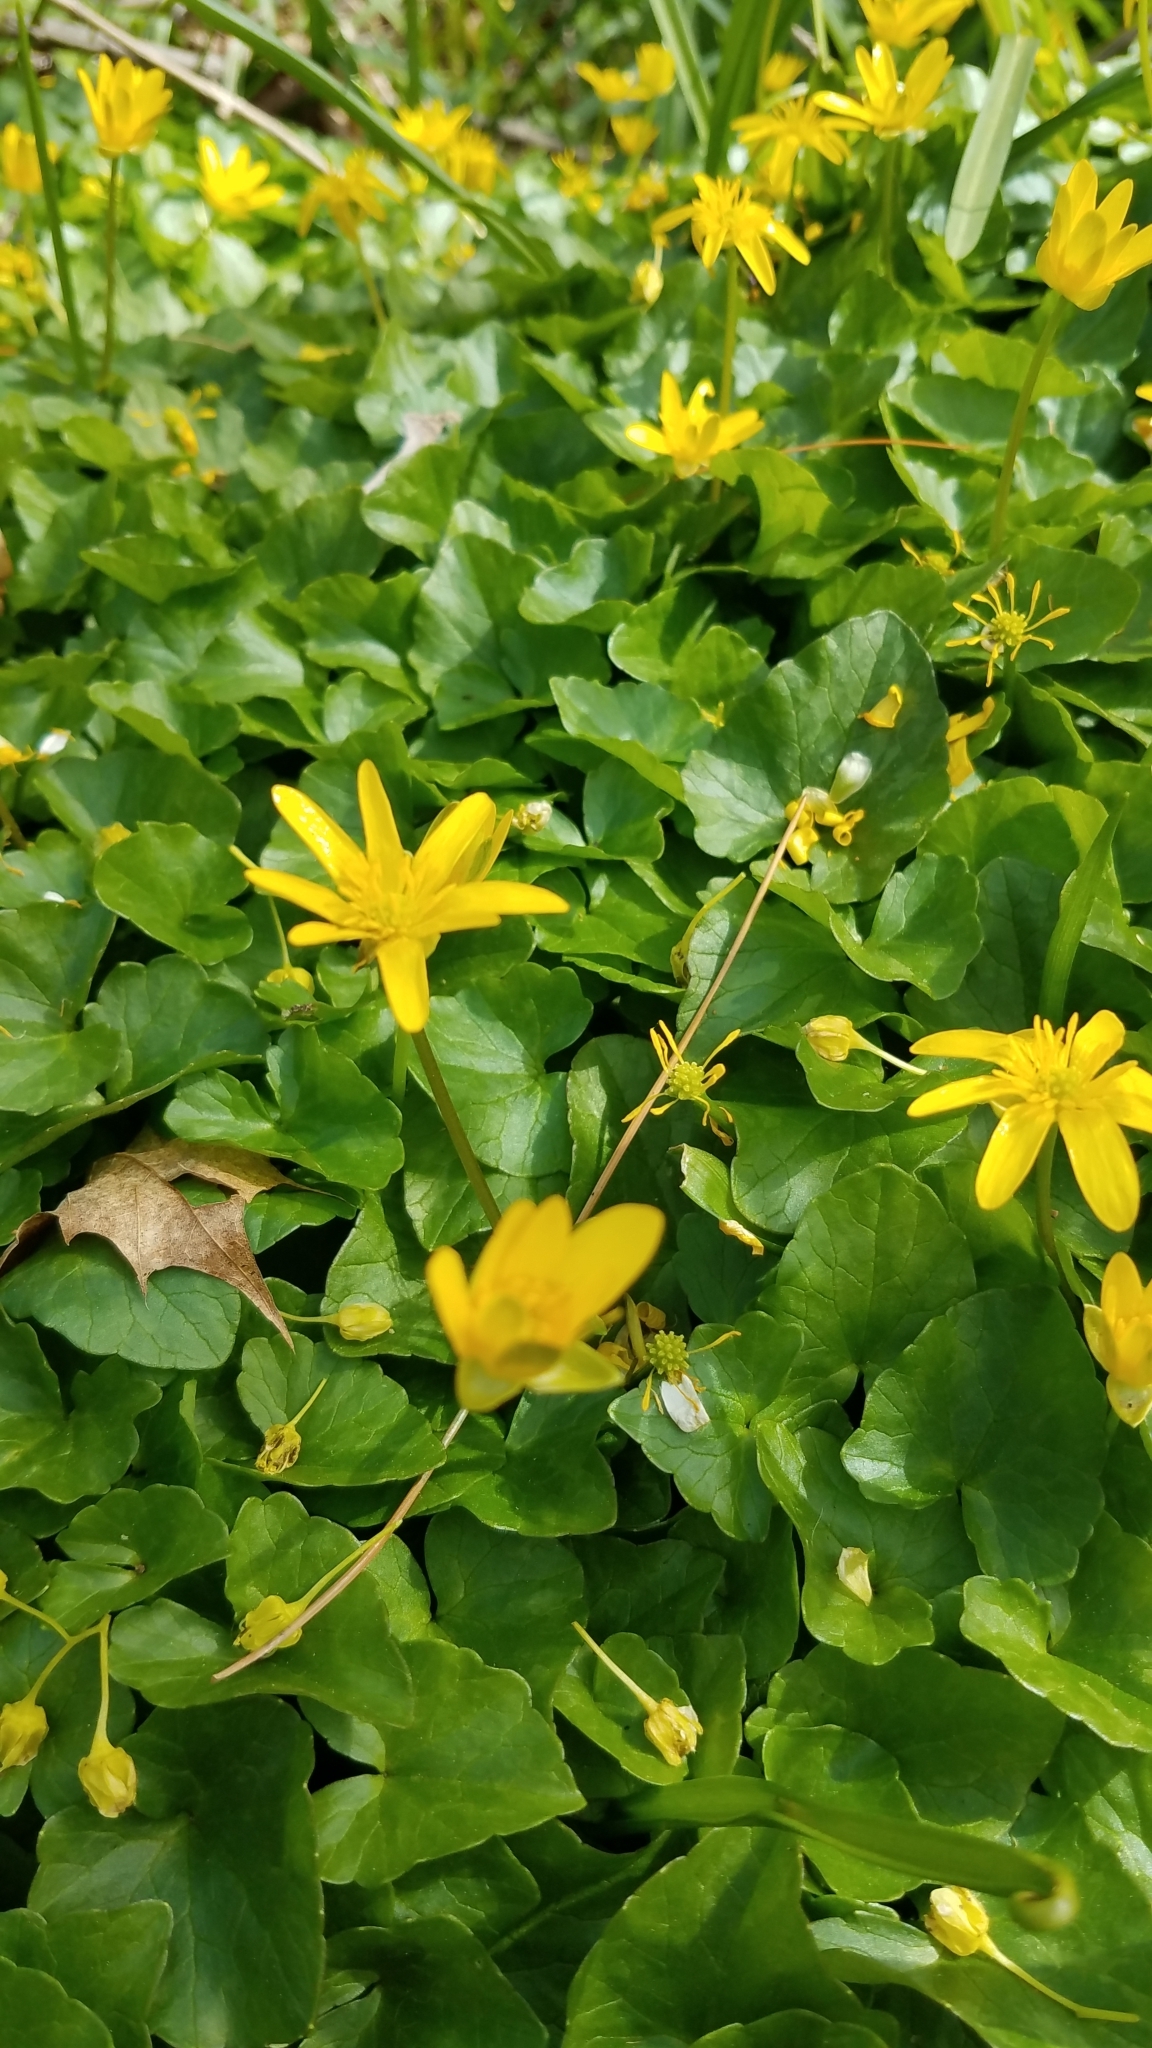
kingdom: Plantae
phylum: Tracheophyta
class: Magnoliopsida
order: Ranunculales
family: Ranunculaceae
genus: Ficaria
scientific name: Ficaria verna
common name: Lesser celandine
